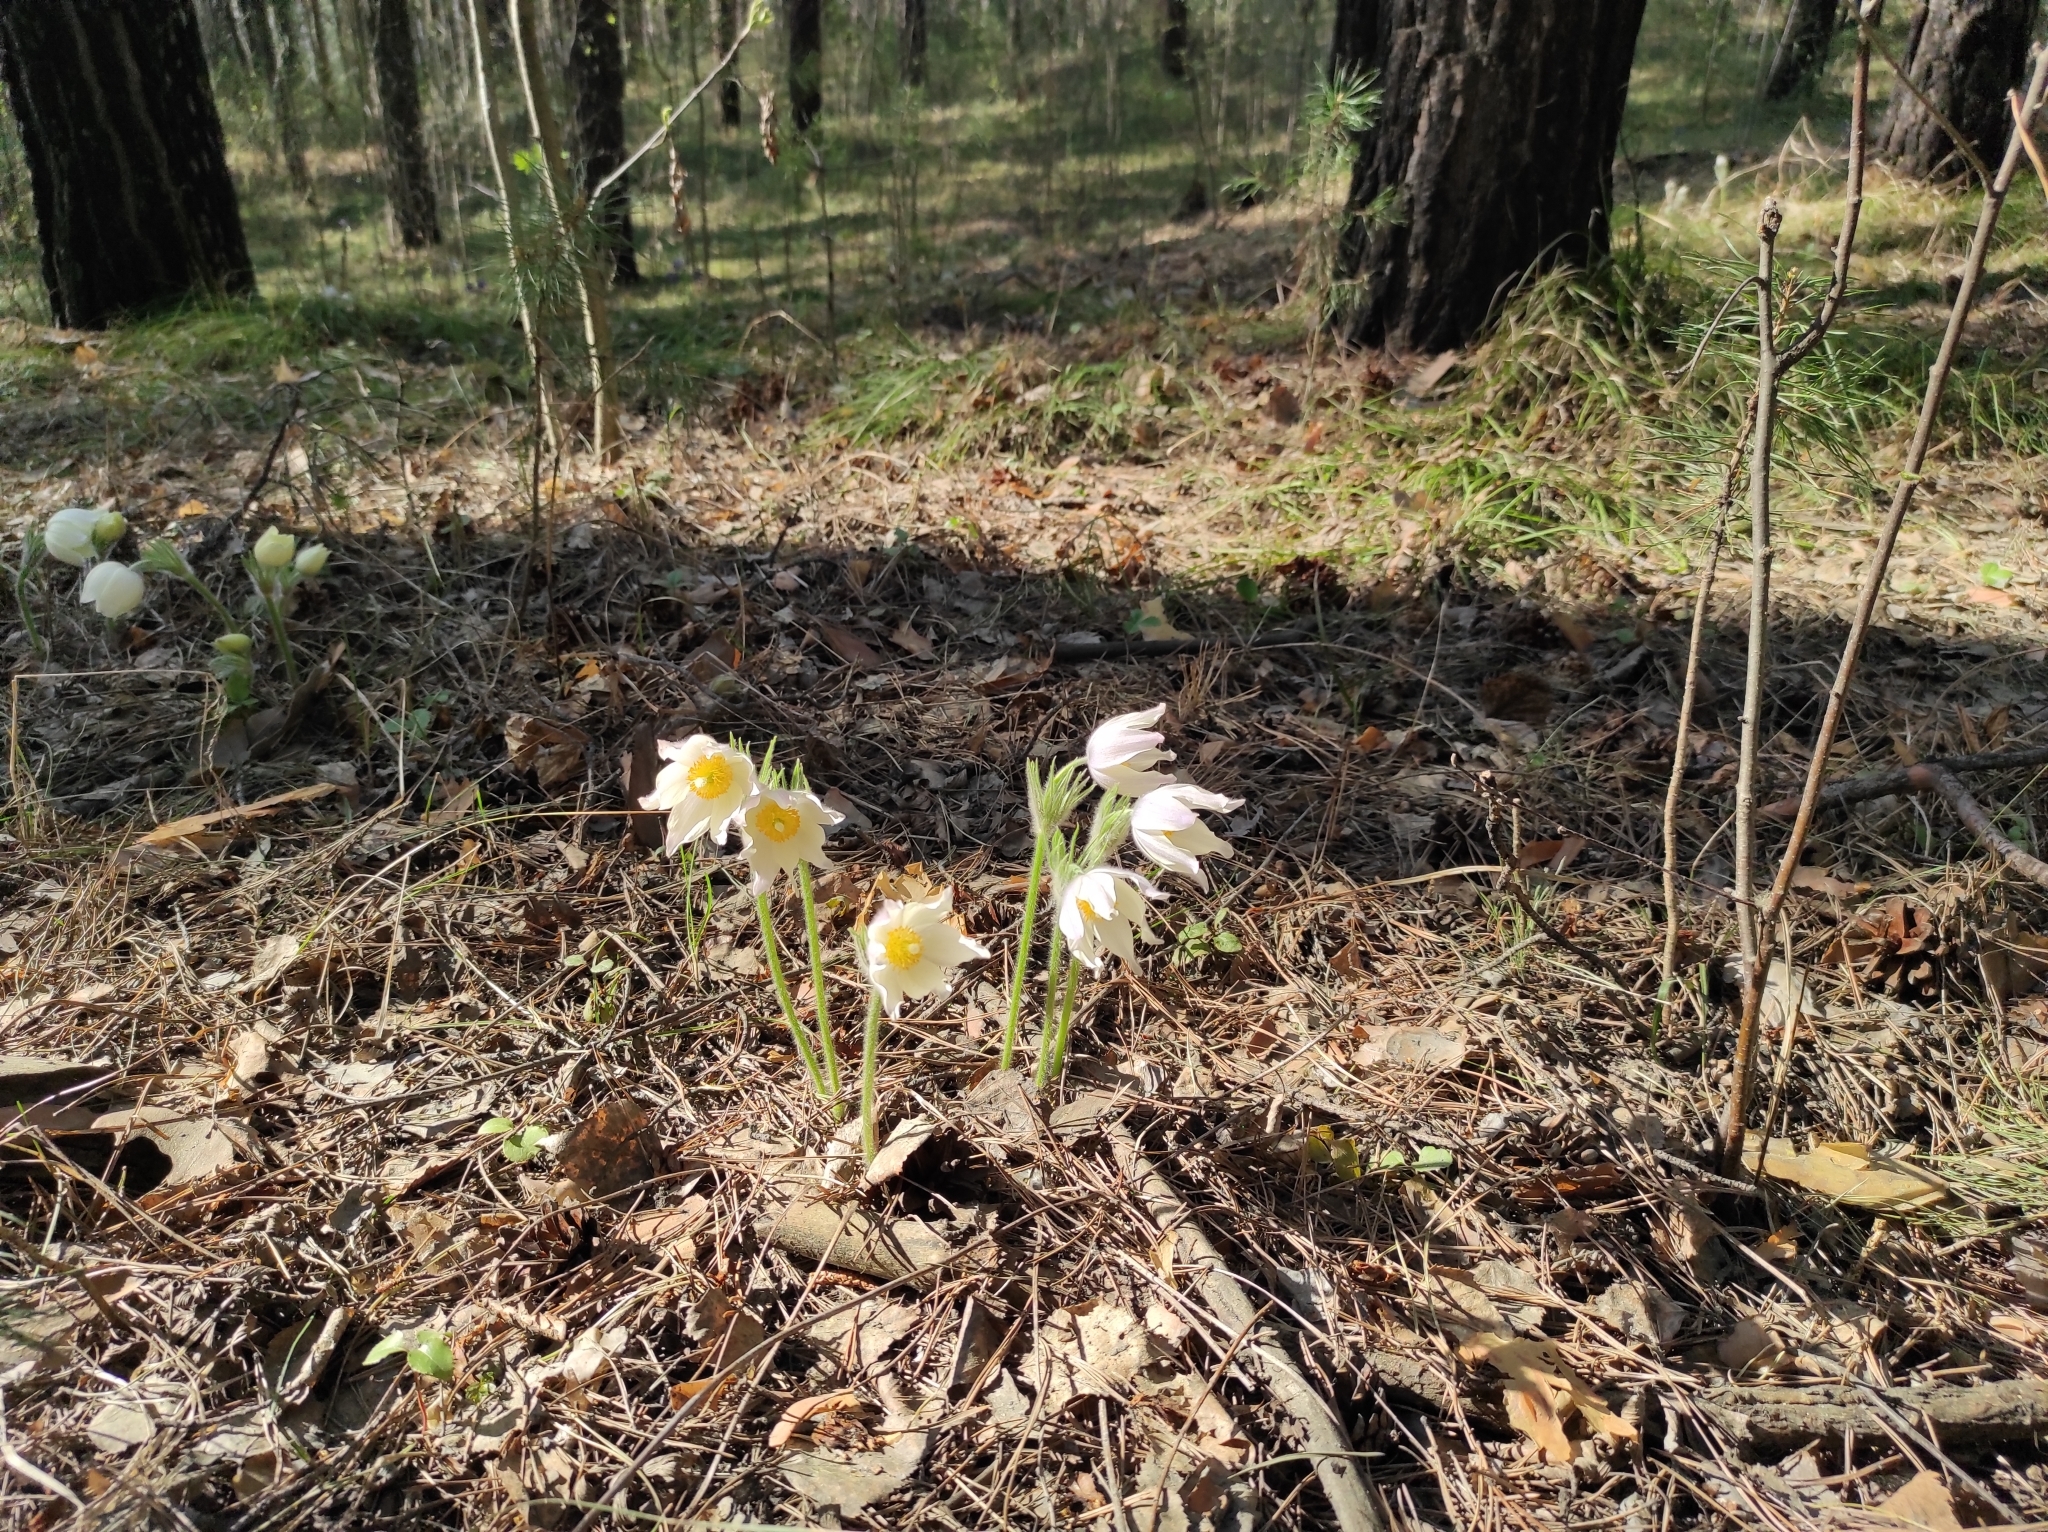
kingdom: Plantae
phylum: Tracheophyta
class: Magnoliopsida
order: Ranunculales
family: Ranunculaceae
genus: Pulsatilla
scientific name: Pulsatilla patens
